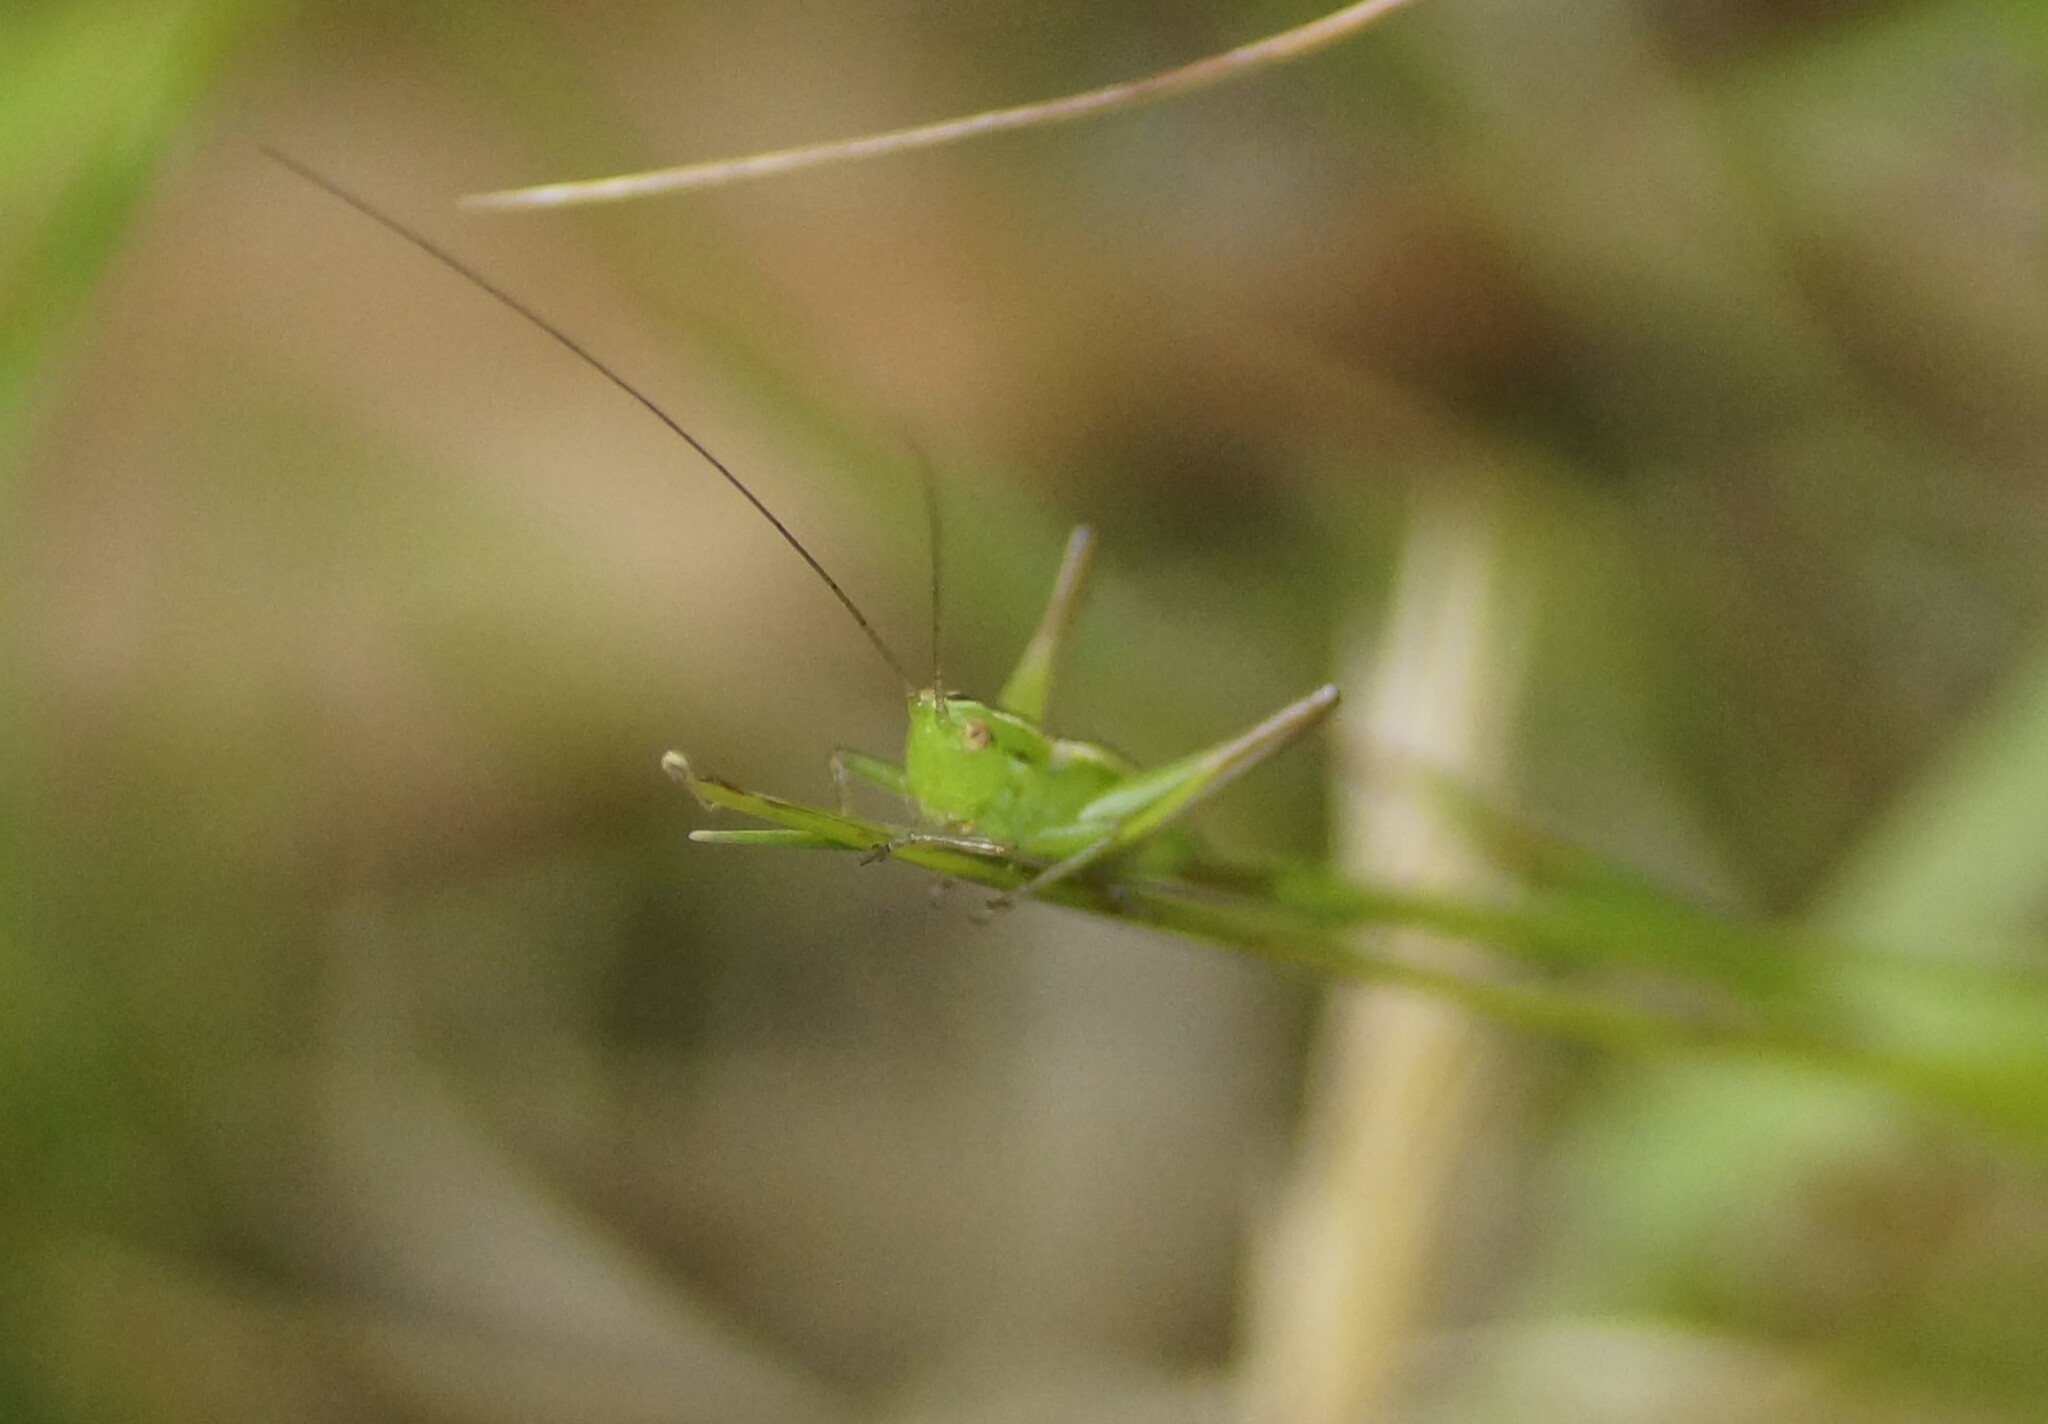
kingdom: Animalia
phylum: Arthropoda
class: Insecta
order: Orthoptera
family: Tettigoniidae
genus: Conocephalus
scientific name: Conocephalus bilineatus
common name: Small meadow katydid
